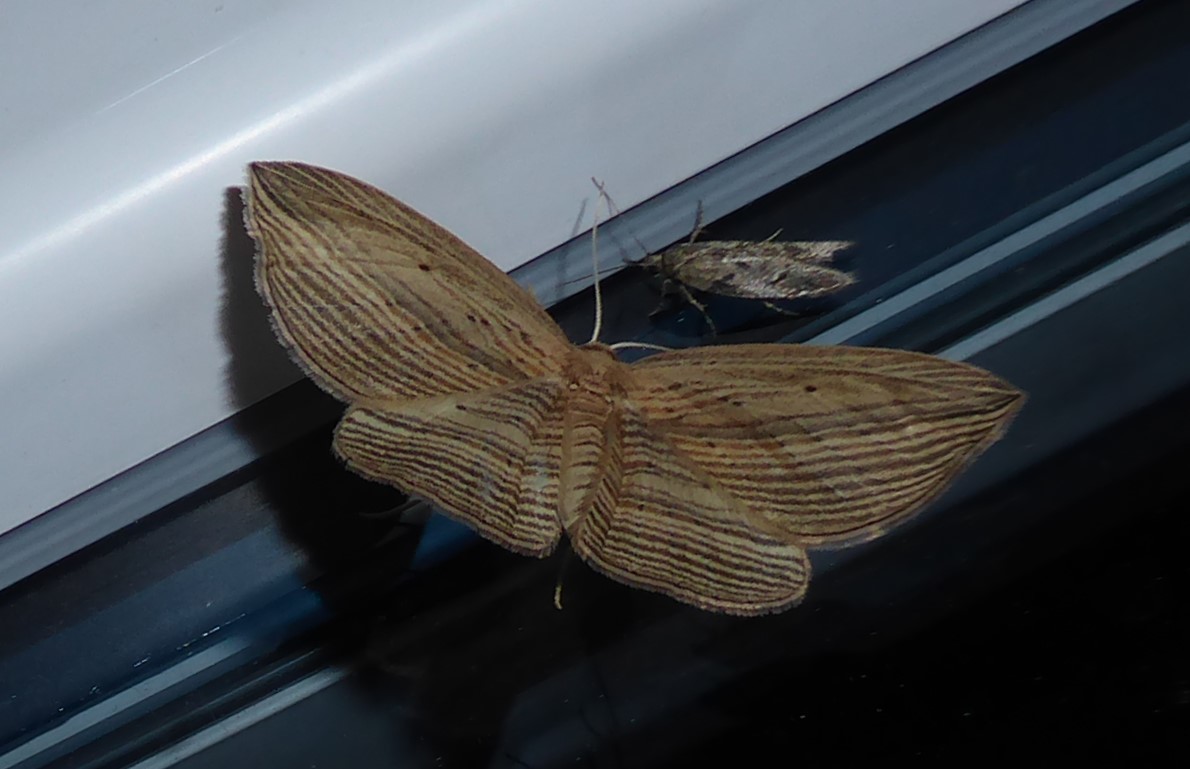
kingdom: Animalia
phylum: Arthropoda
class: Insecta
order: Lepidoptera
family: Geometridae
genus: Epiphryne
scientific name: Epiphryne verriculata
